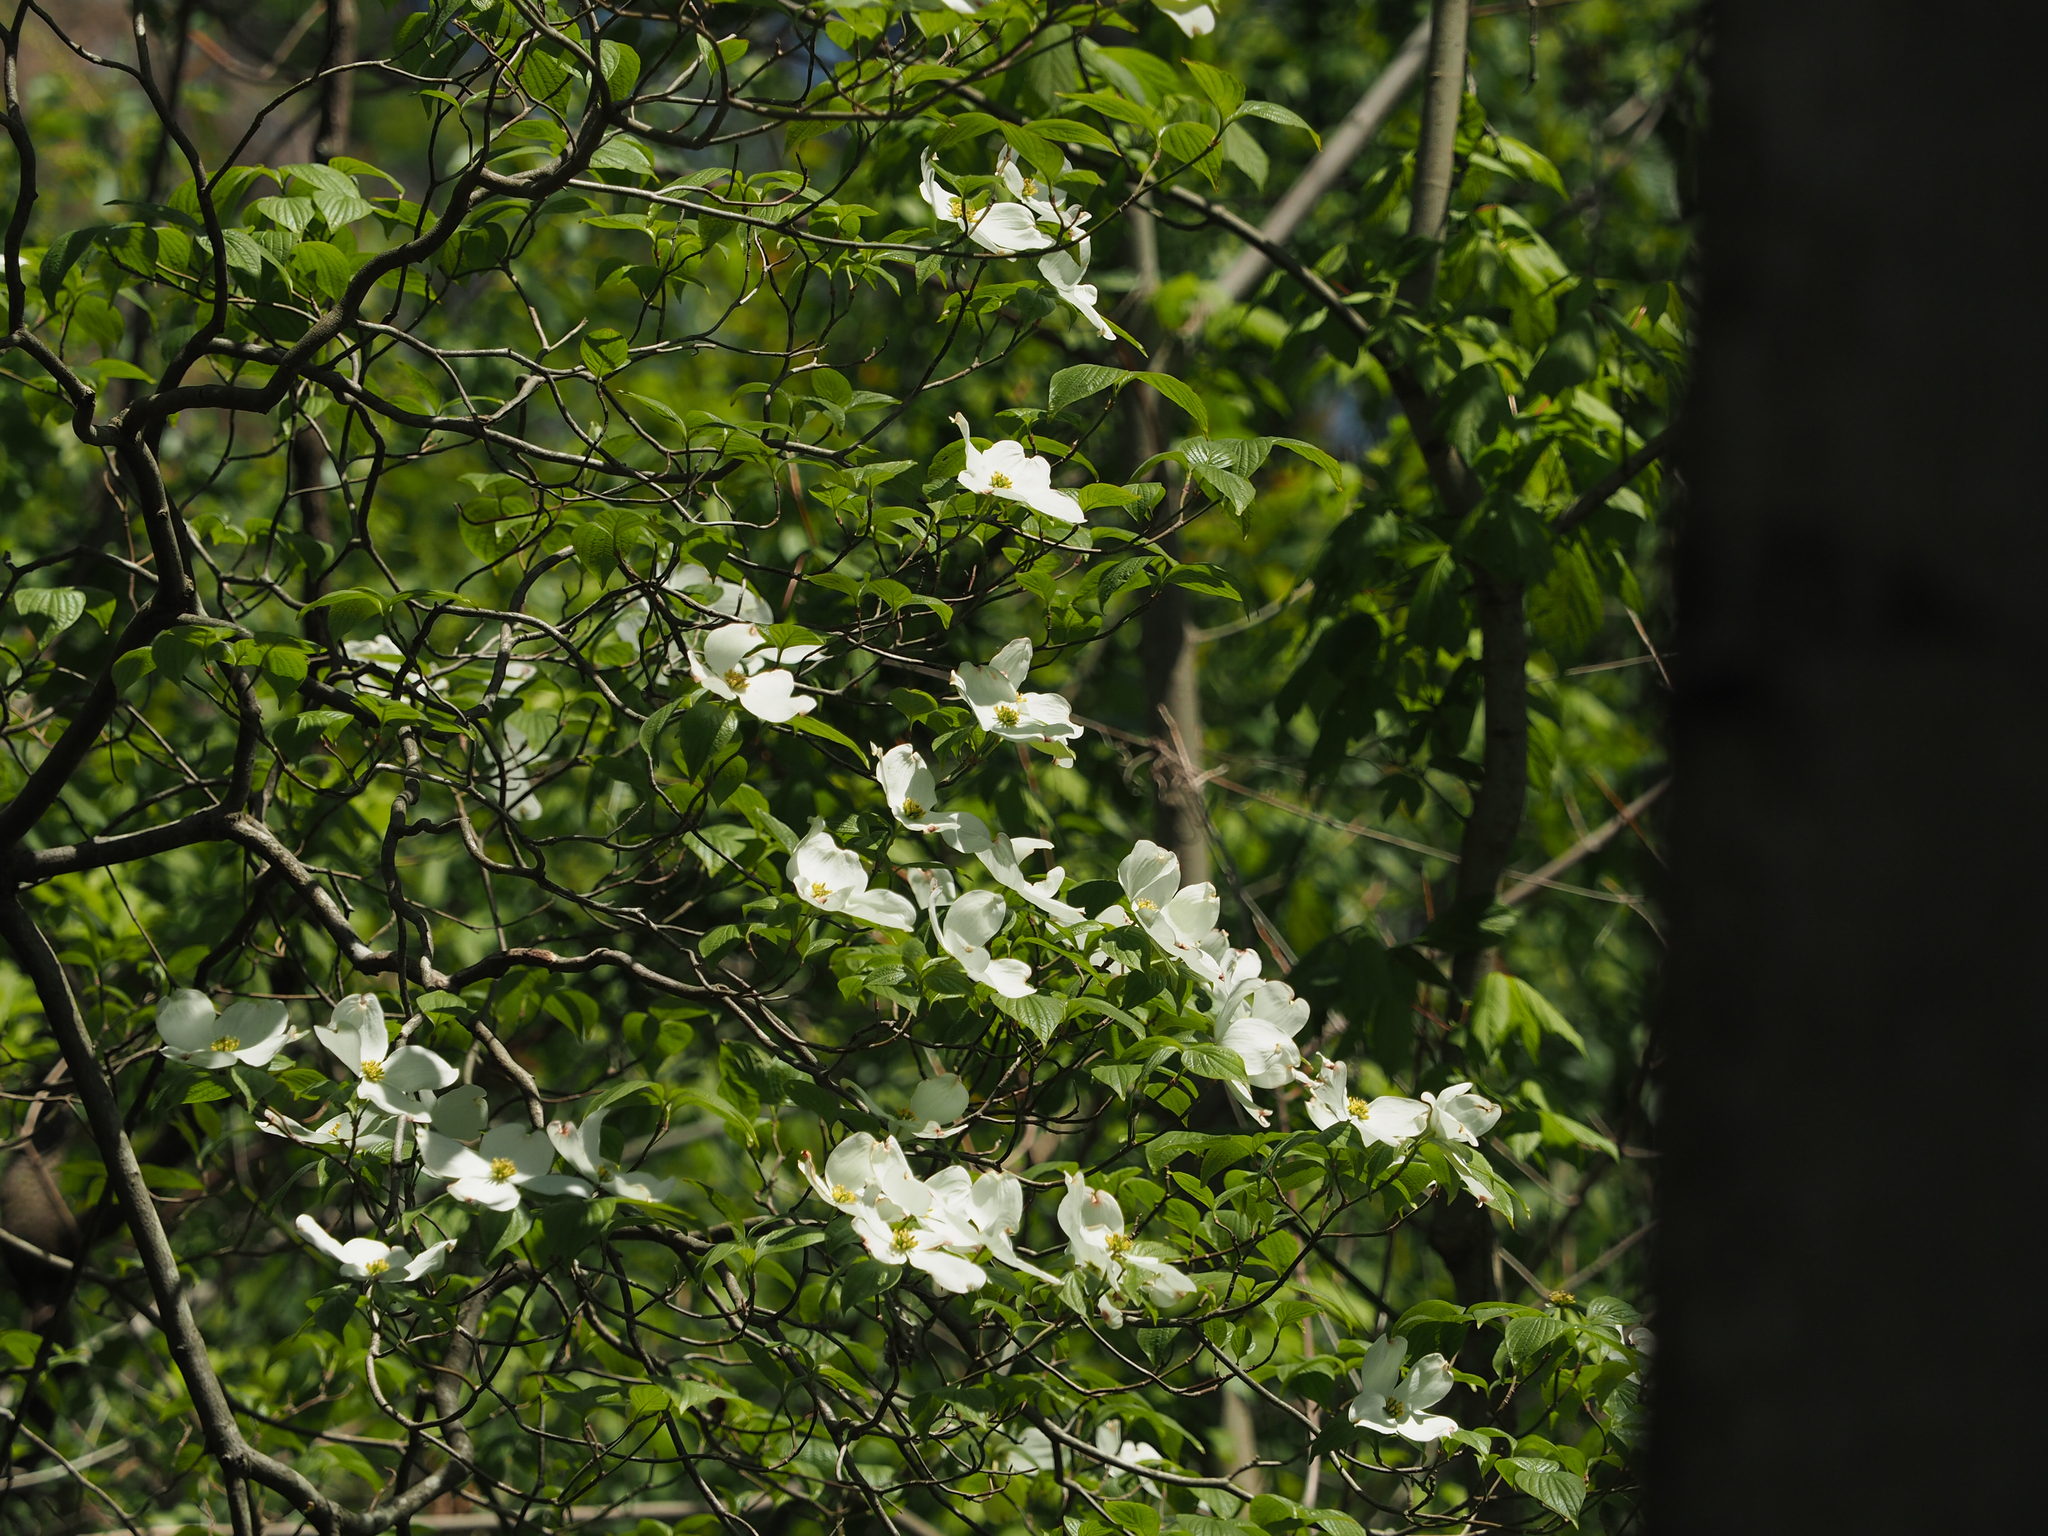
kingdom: Plantae
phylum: Tracheophyta
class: Magnoliopsida
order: Cornales
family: Cornaceae
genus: Cornus
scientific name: Cornus florida
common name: Flowering dogwood
